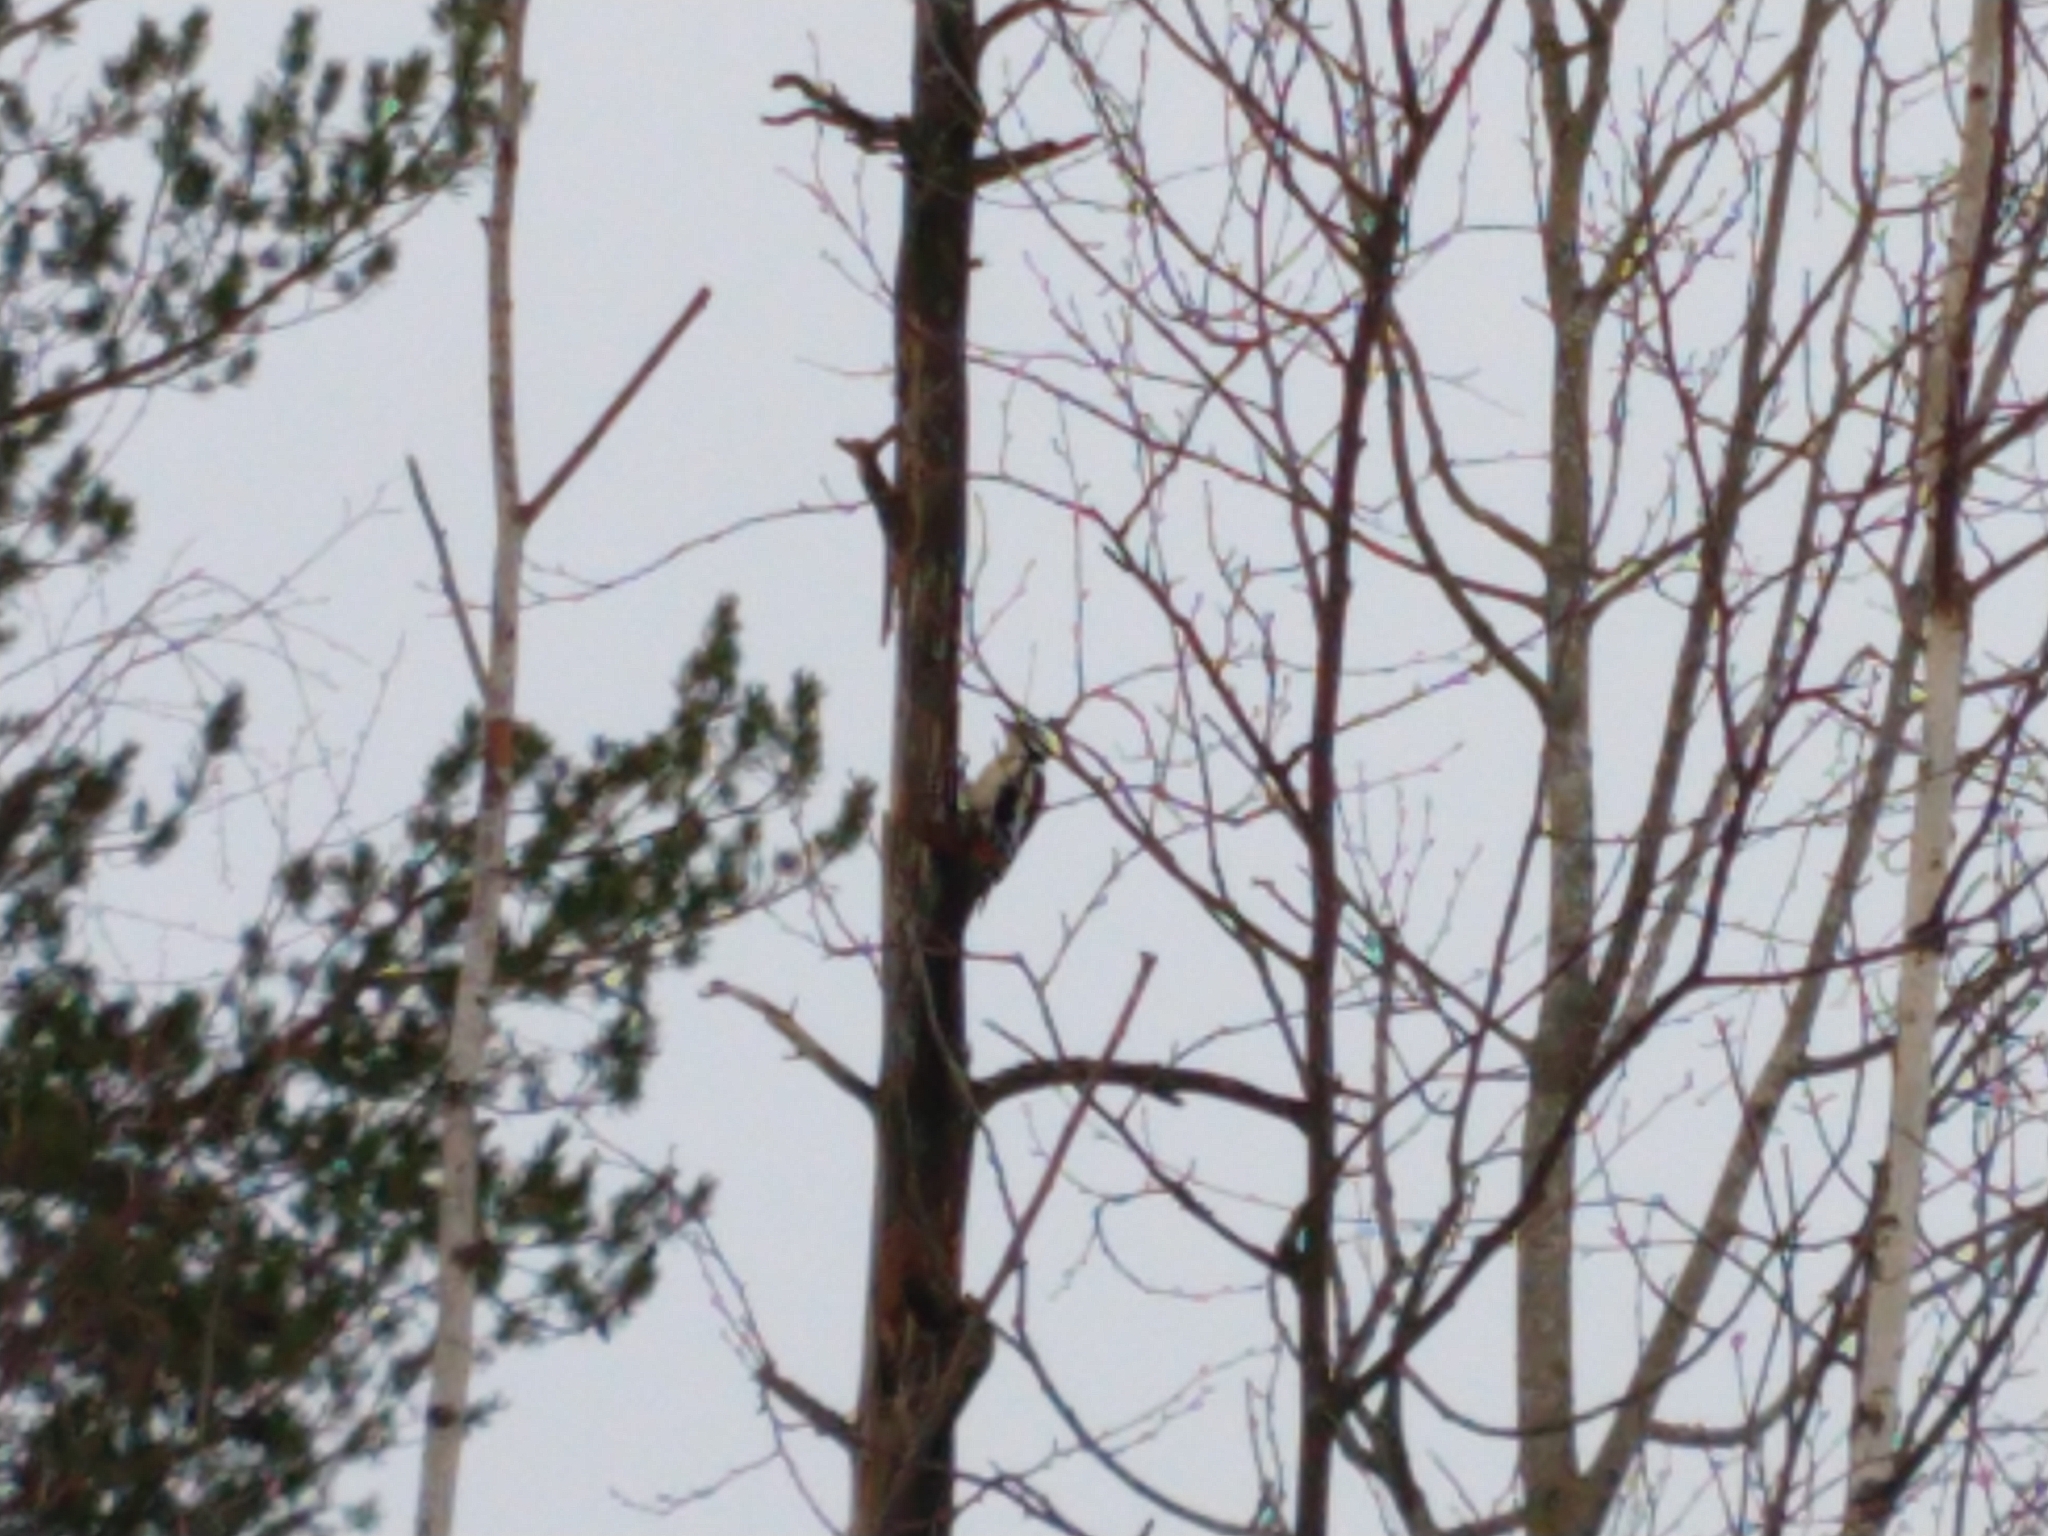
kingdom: Animalia
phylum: Chordata
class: Aves
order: Piciformes
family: Picidae
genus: Dendrocopos
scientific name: Dendrocopos major
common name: Great spotted woodpecker
